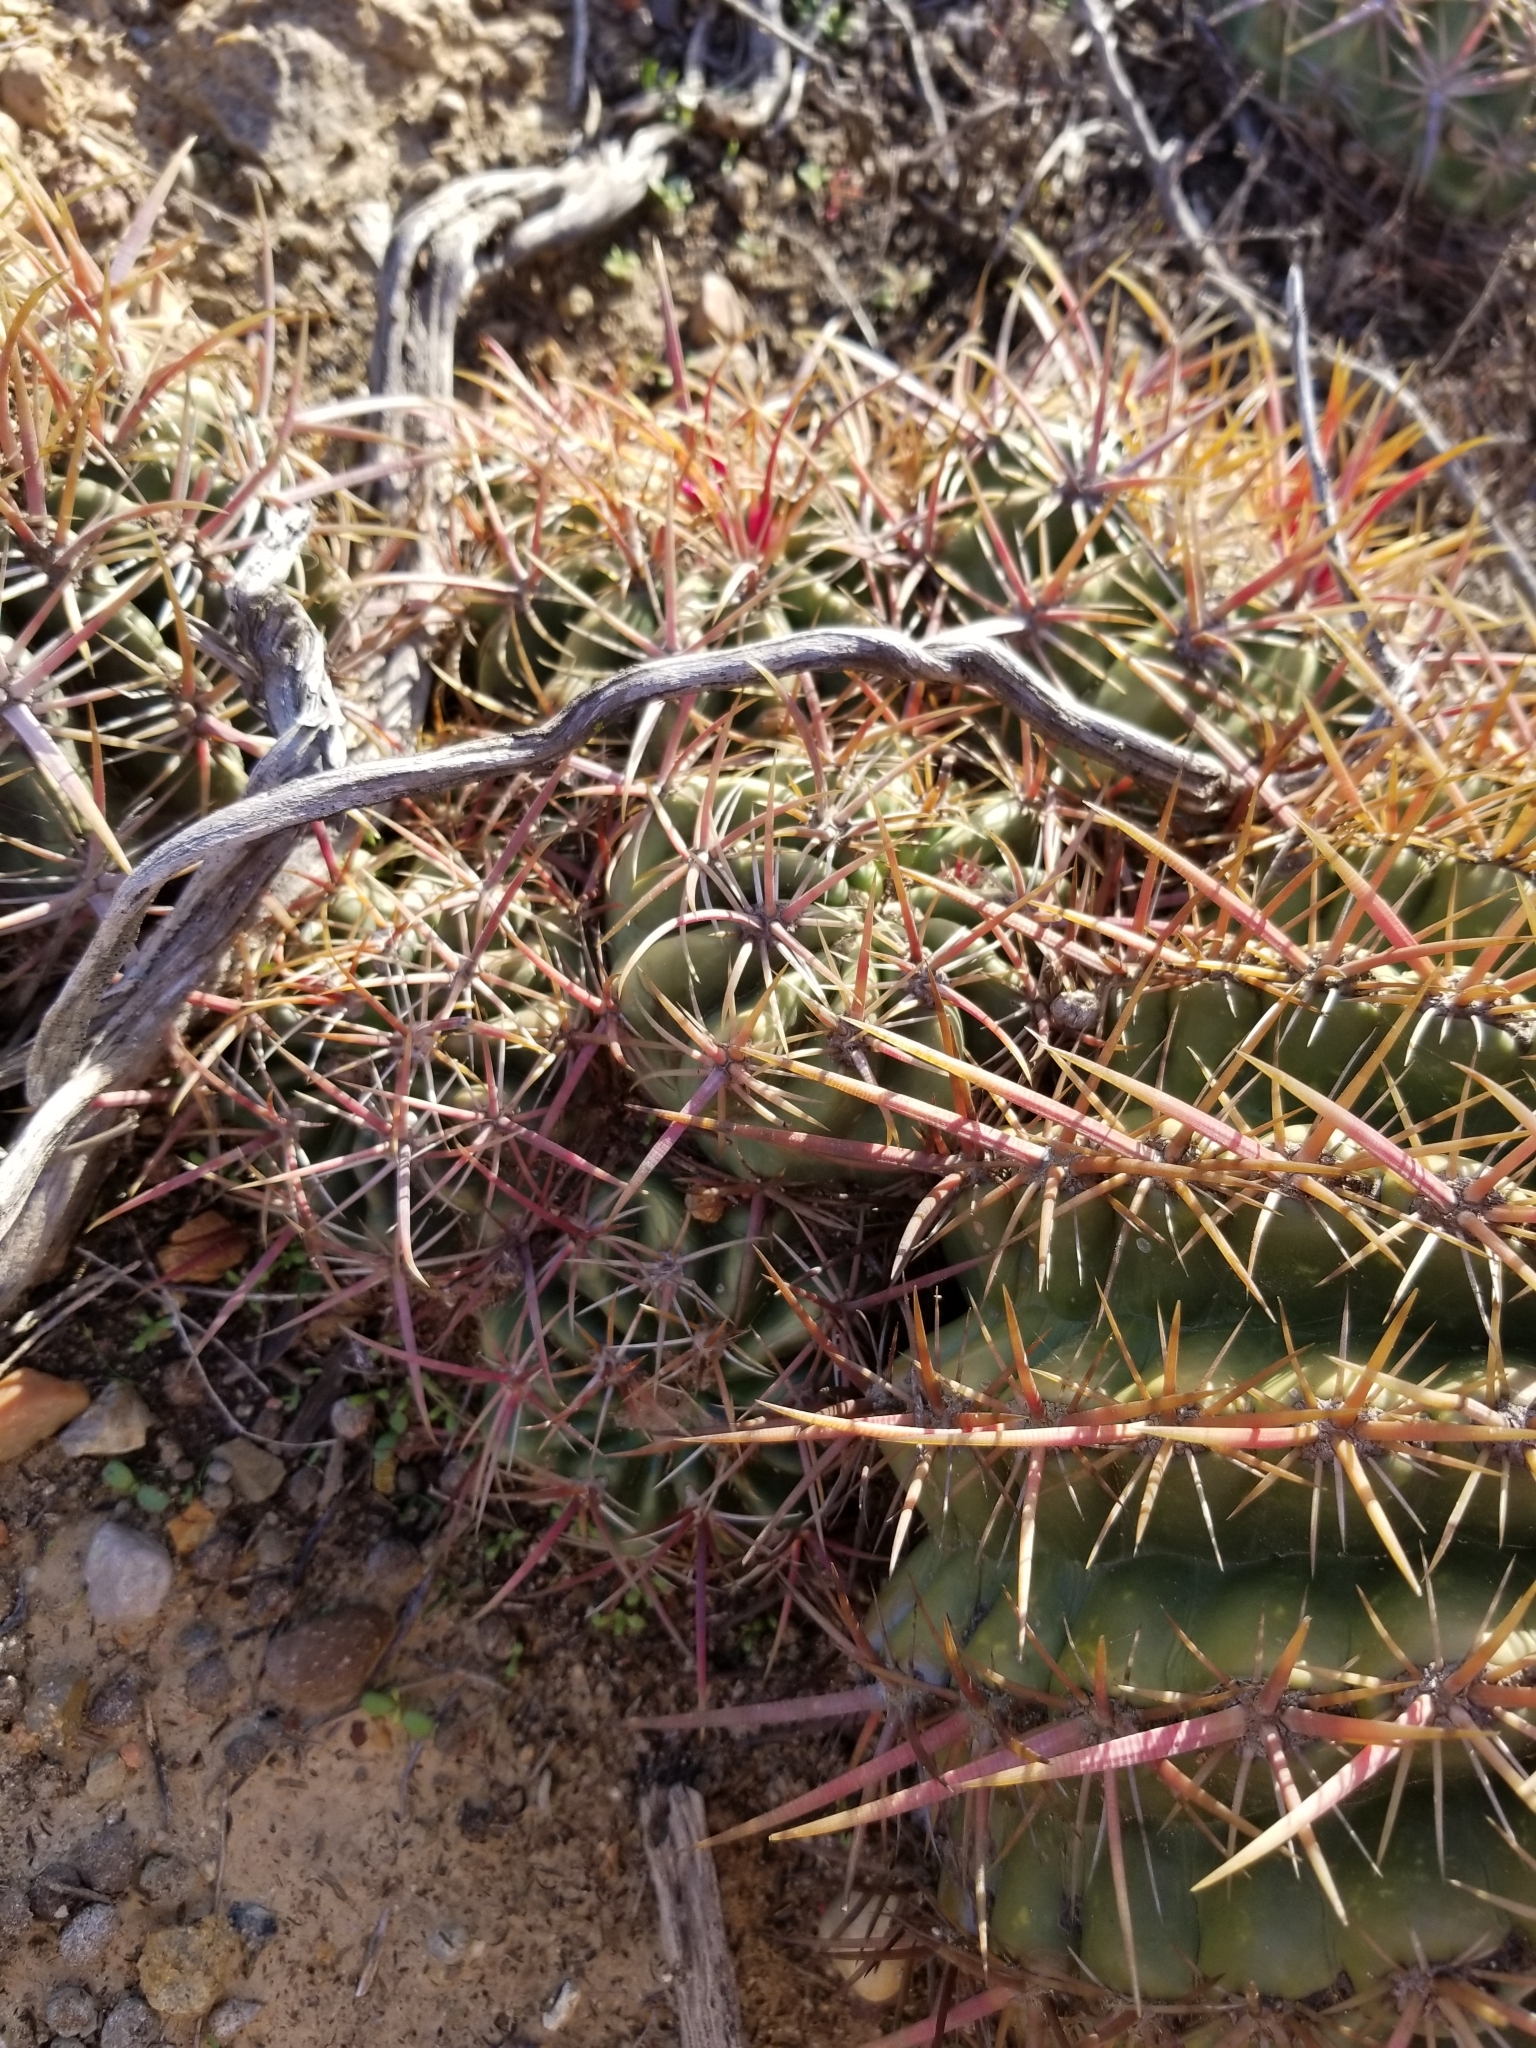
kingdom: Plantae
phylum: Tracheophyta
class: Magnoliopsida
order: Caryophyllales
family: Cactaceae
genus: Ferocactus
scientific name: Ferocactus viridescens
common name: San diego barrel cactus
